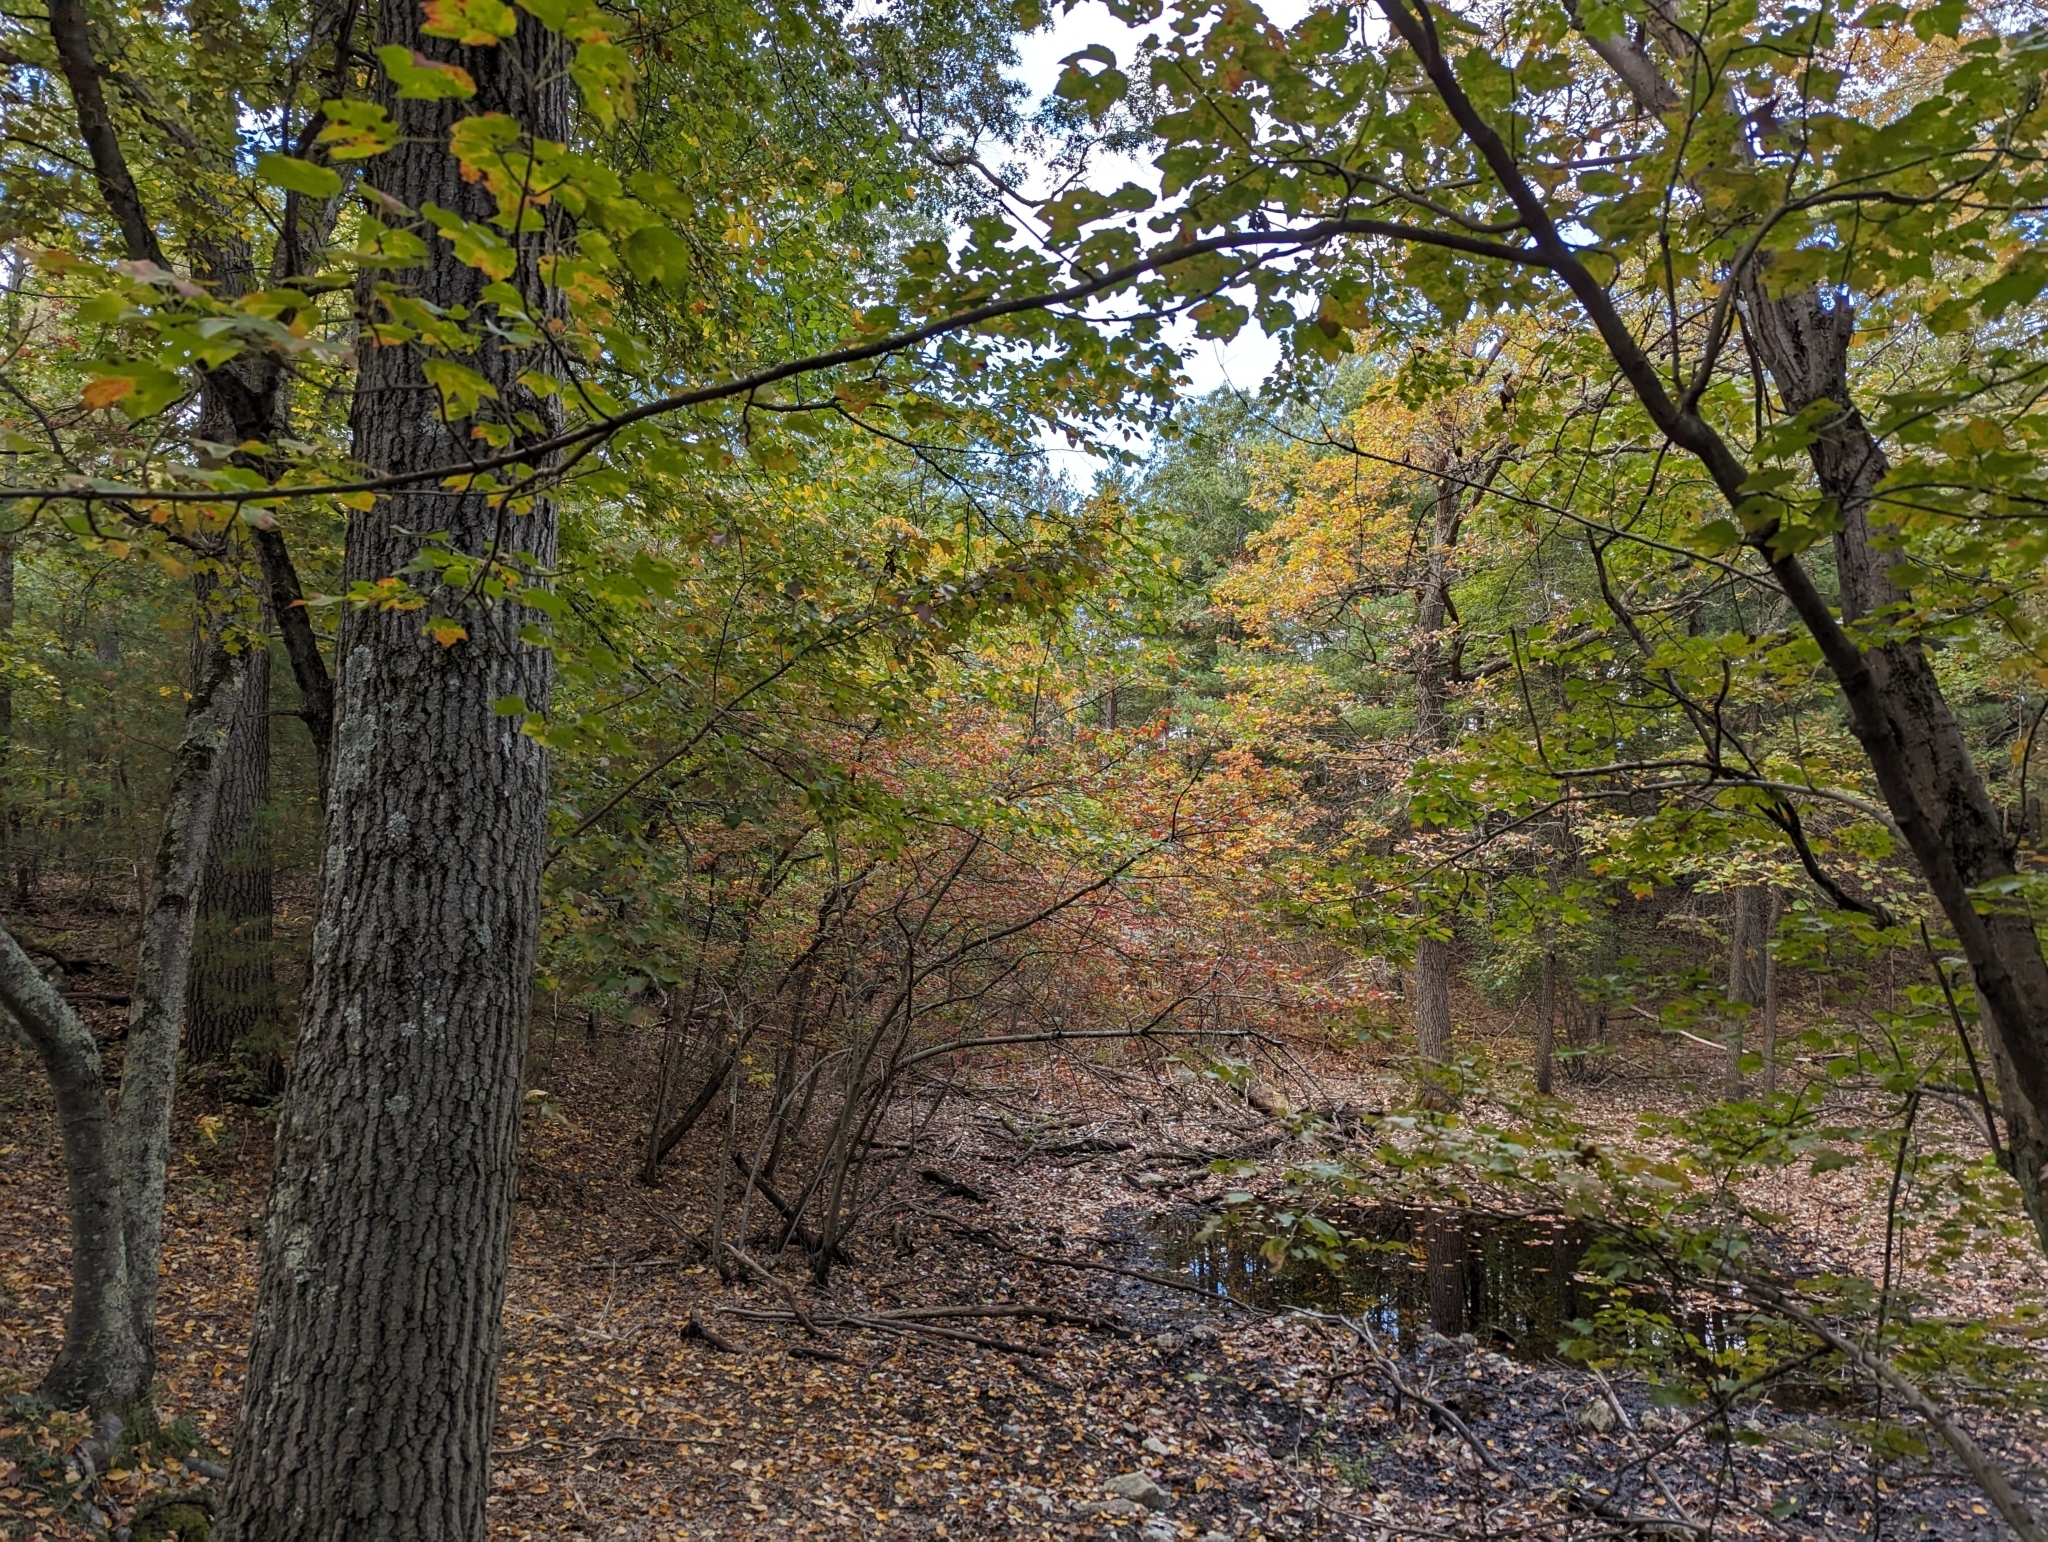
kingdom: Plantae
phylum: Tracheophyta
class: Magnoliopsida
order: Sapindales
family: Sapindaceae
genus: Acer
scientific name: Acer rubrum
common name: Red maple
